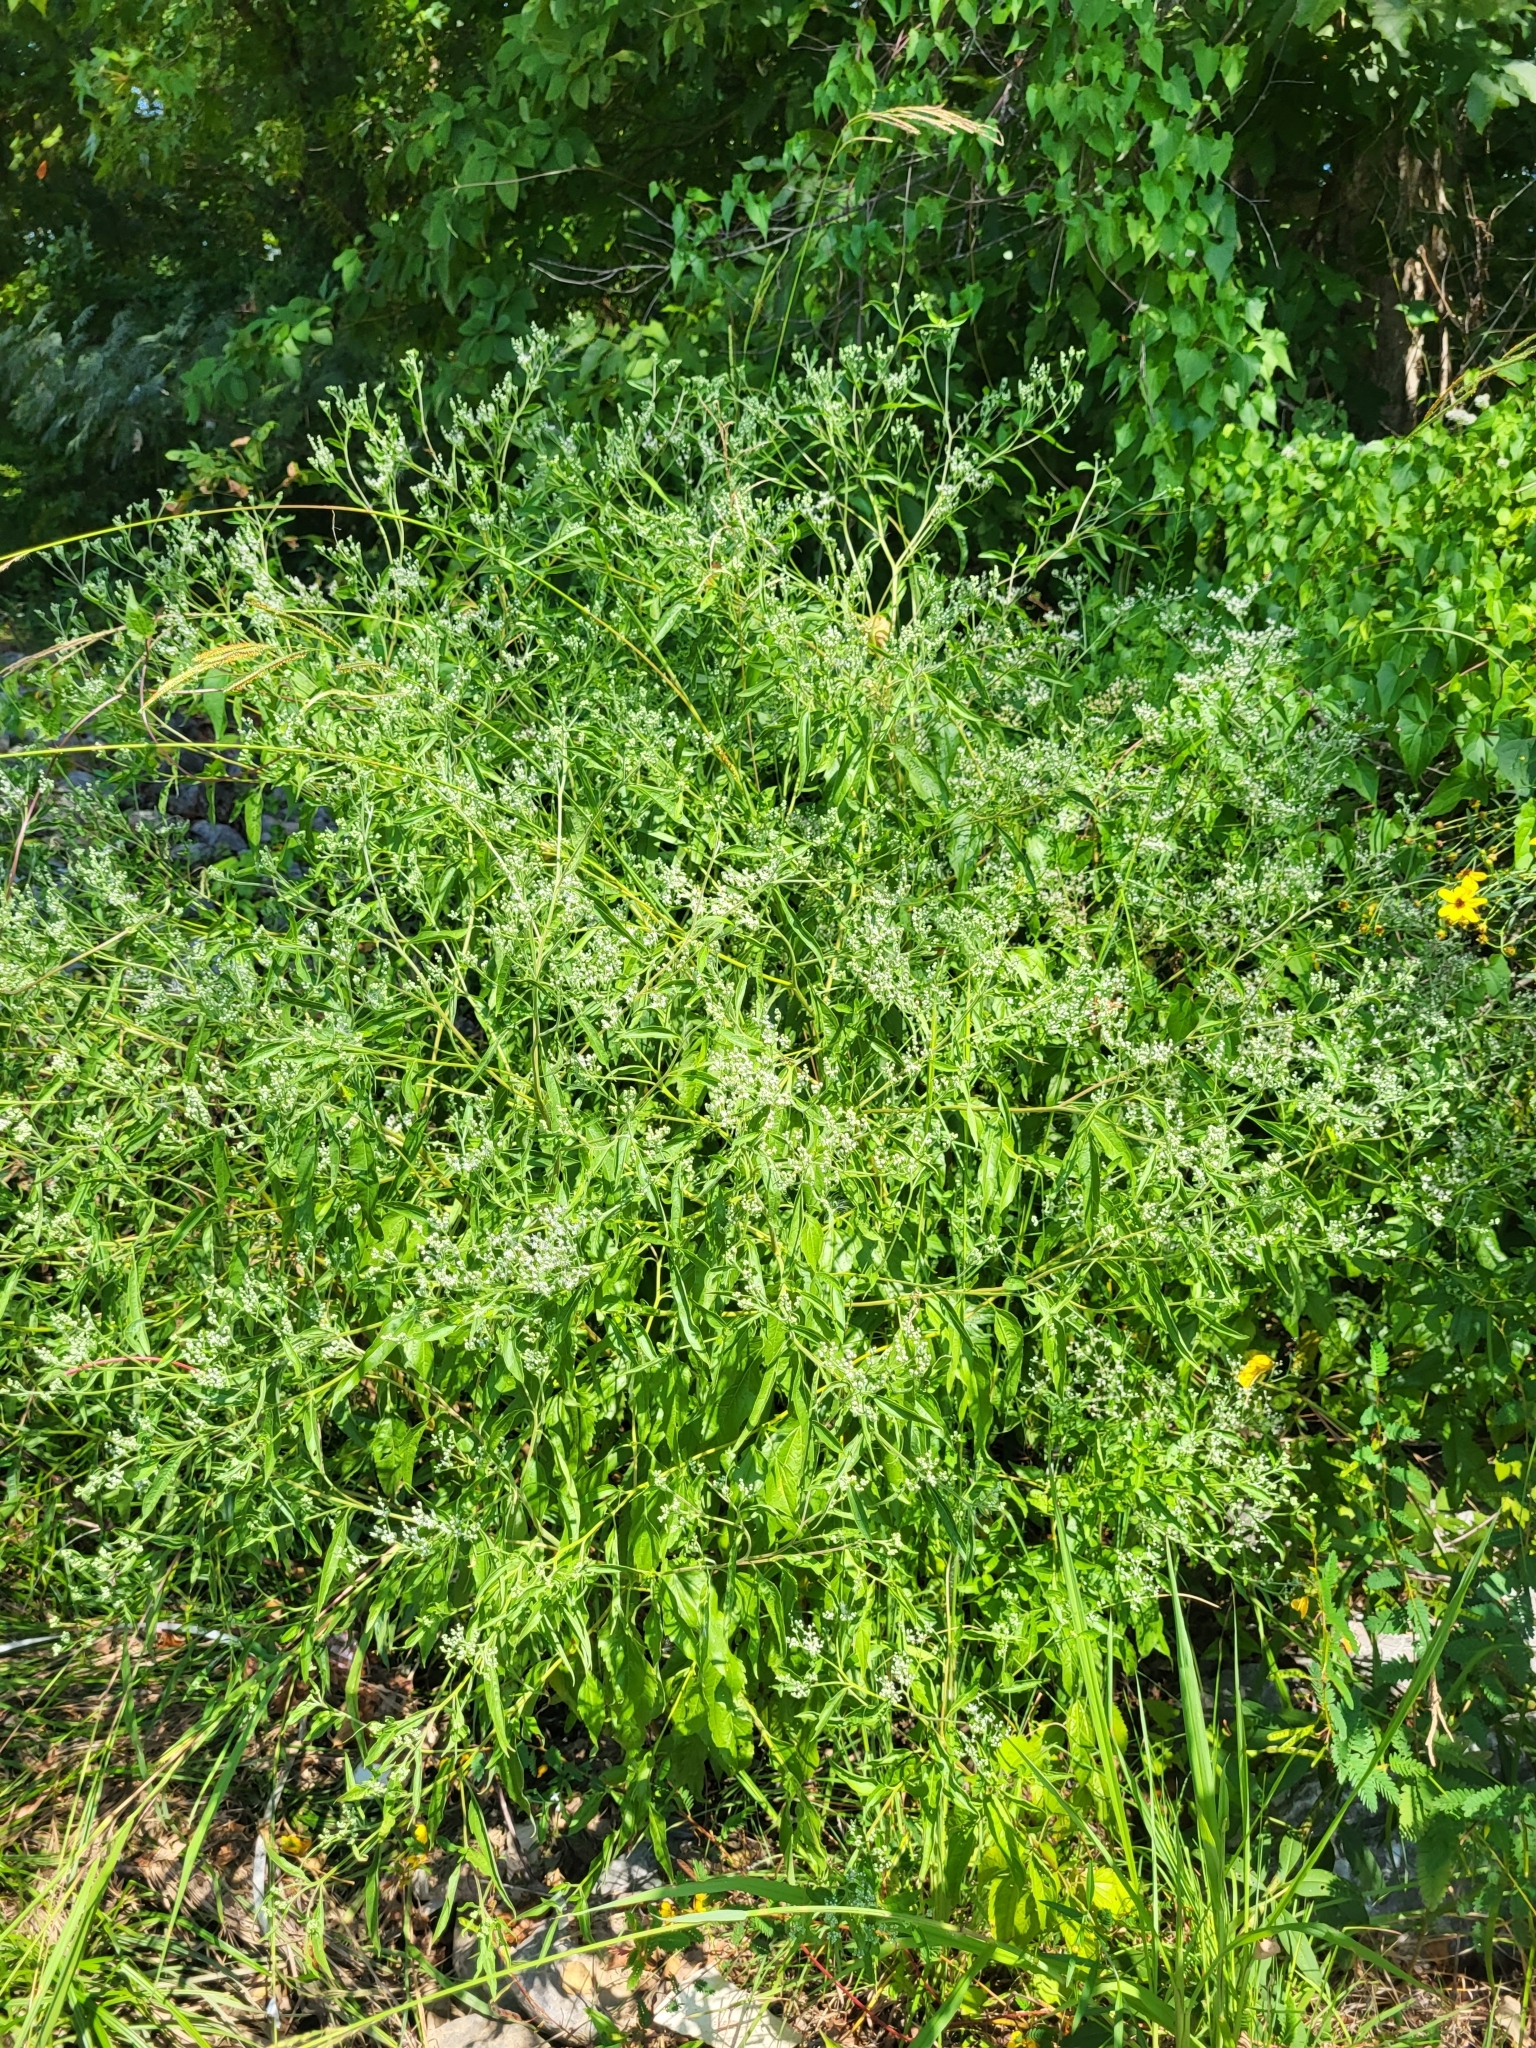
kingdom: Plantae
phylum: Tracheophyta
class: Magnoliopsida
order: Asterales
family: Asteraceae
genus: Eupatorium
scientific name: Eupatorium serotinum
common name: Late boneset
